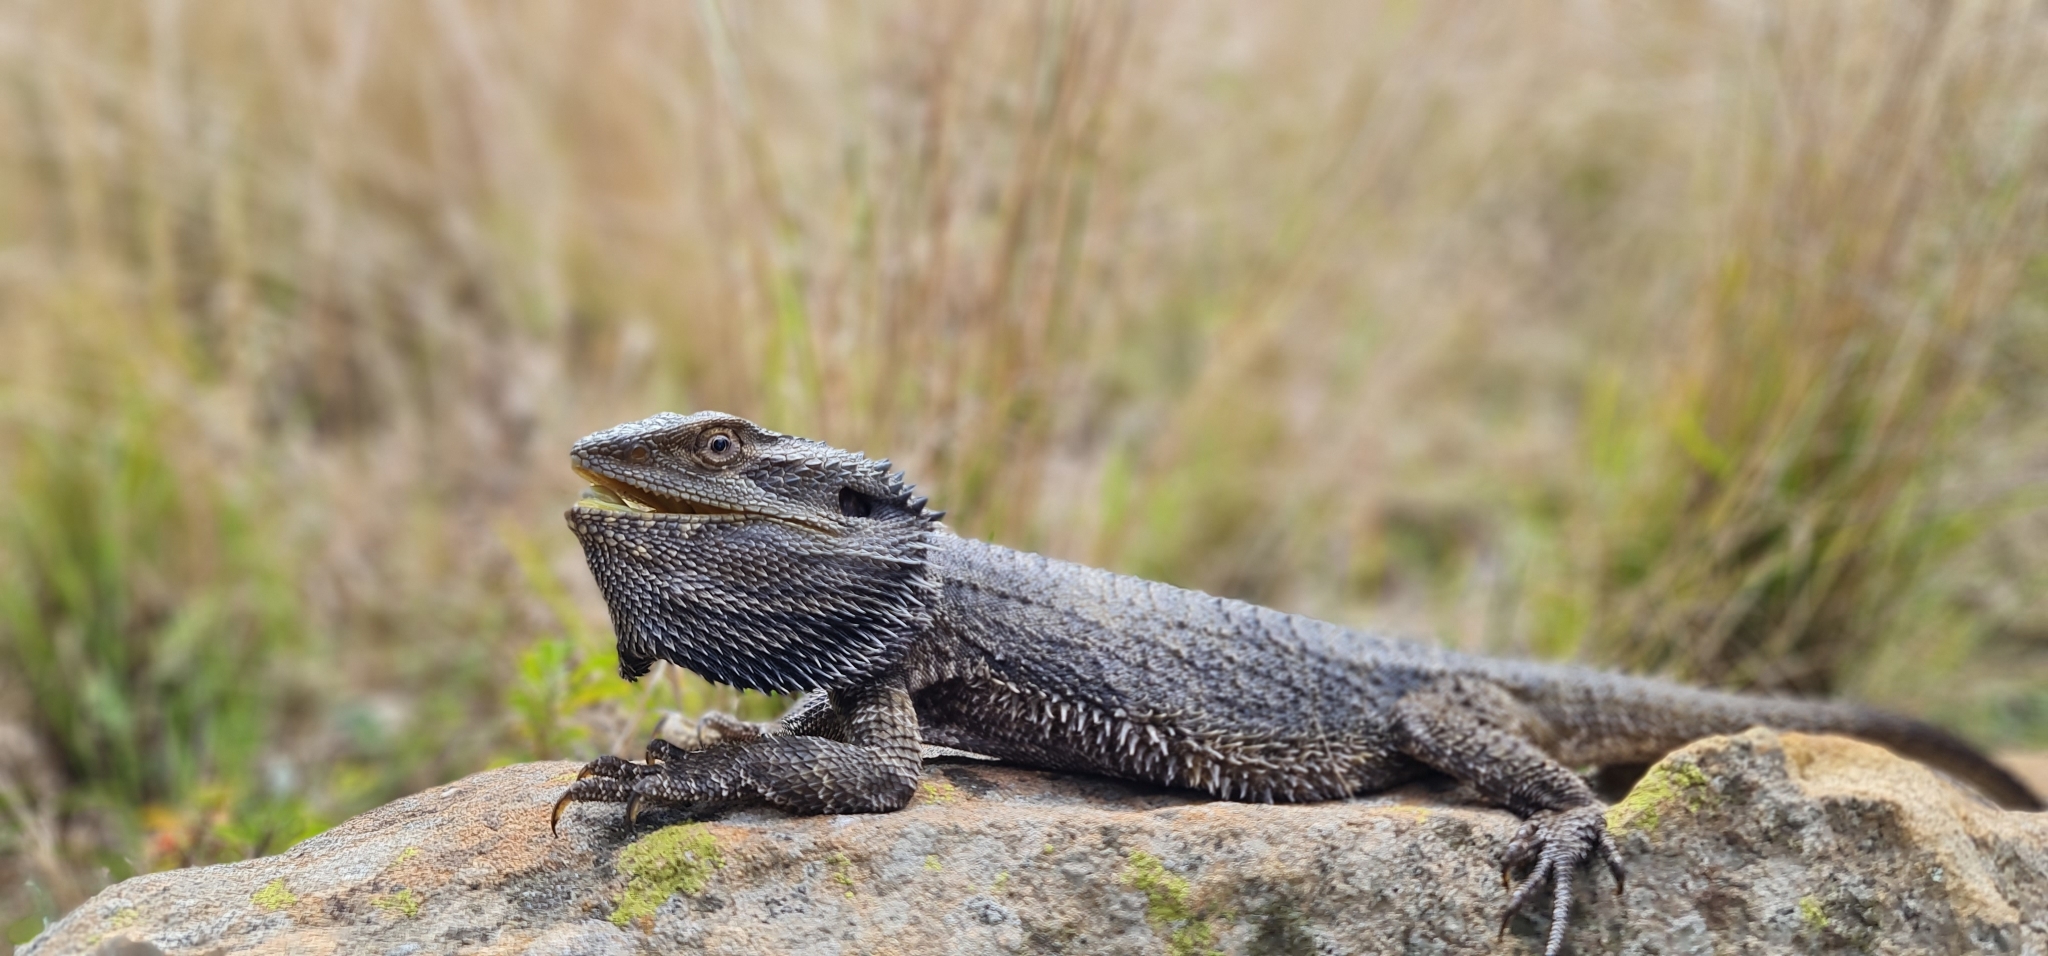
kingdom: Animalia
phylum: Chordata
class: Squamata
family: Agamidae
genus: Pogona
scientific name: Pogona barbata
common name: Bearded dragon
